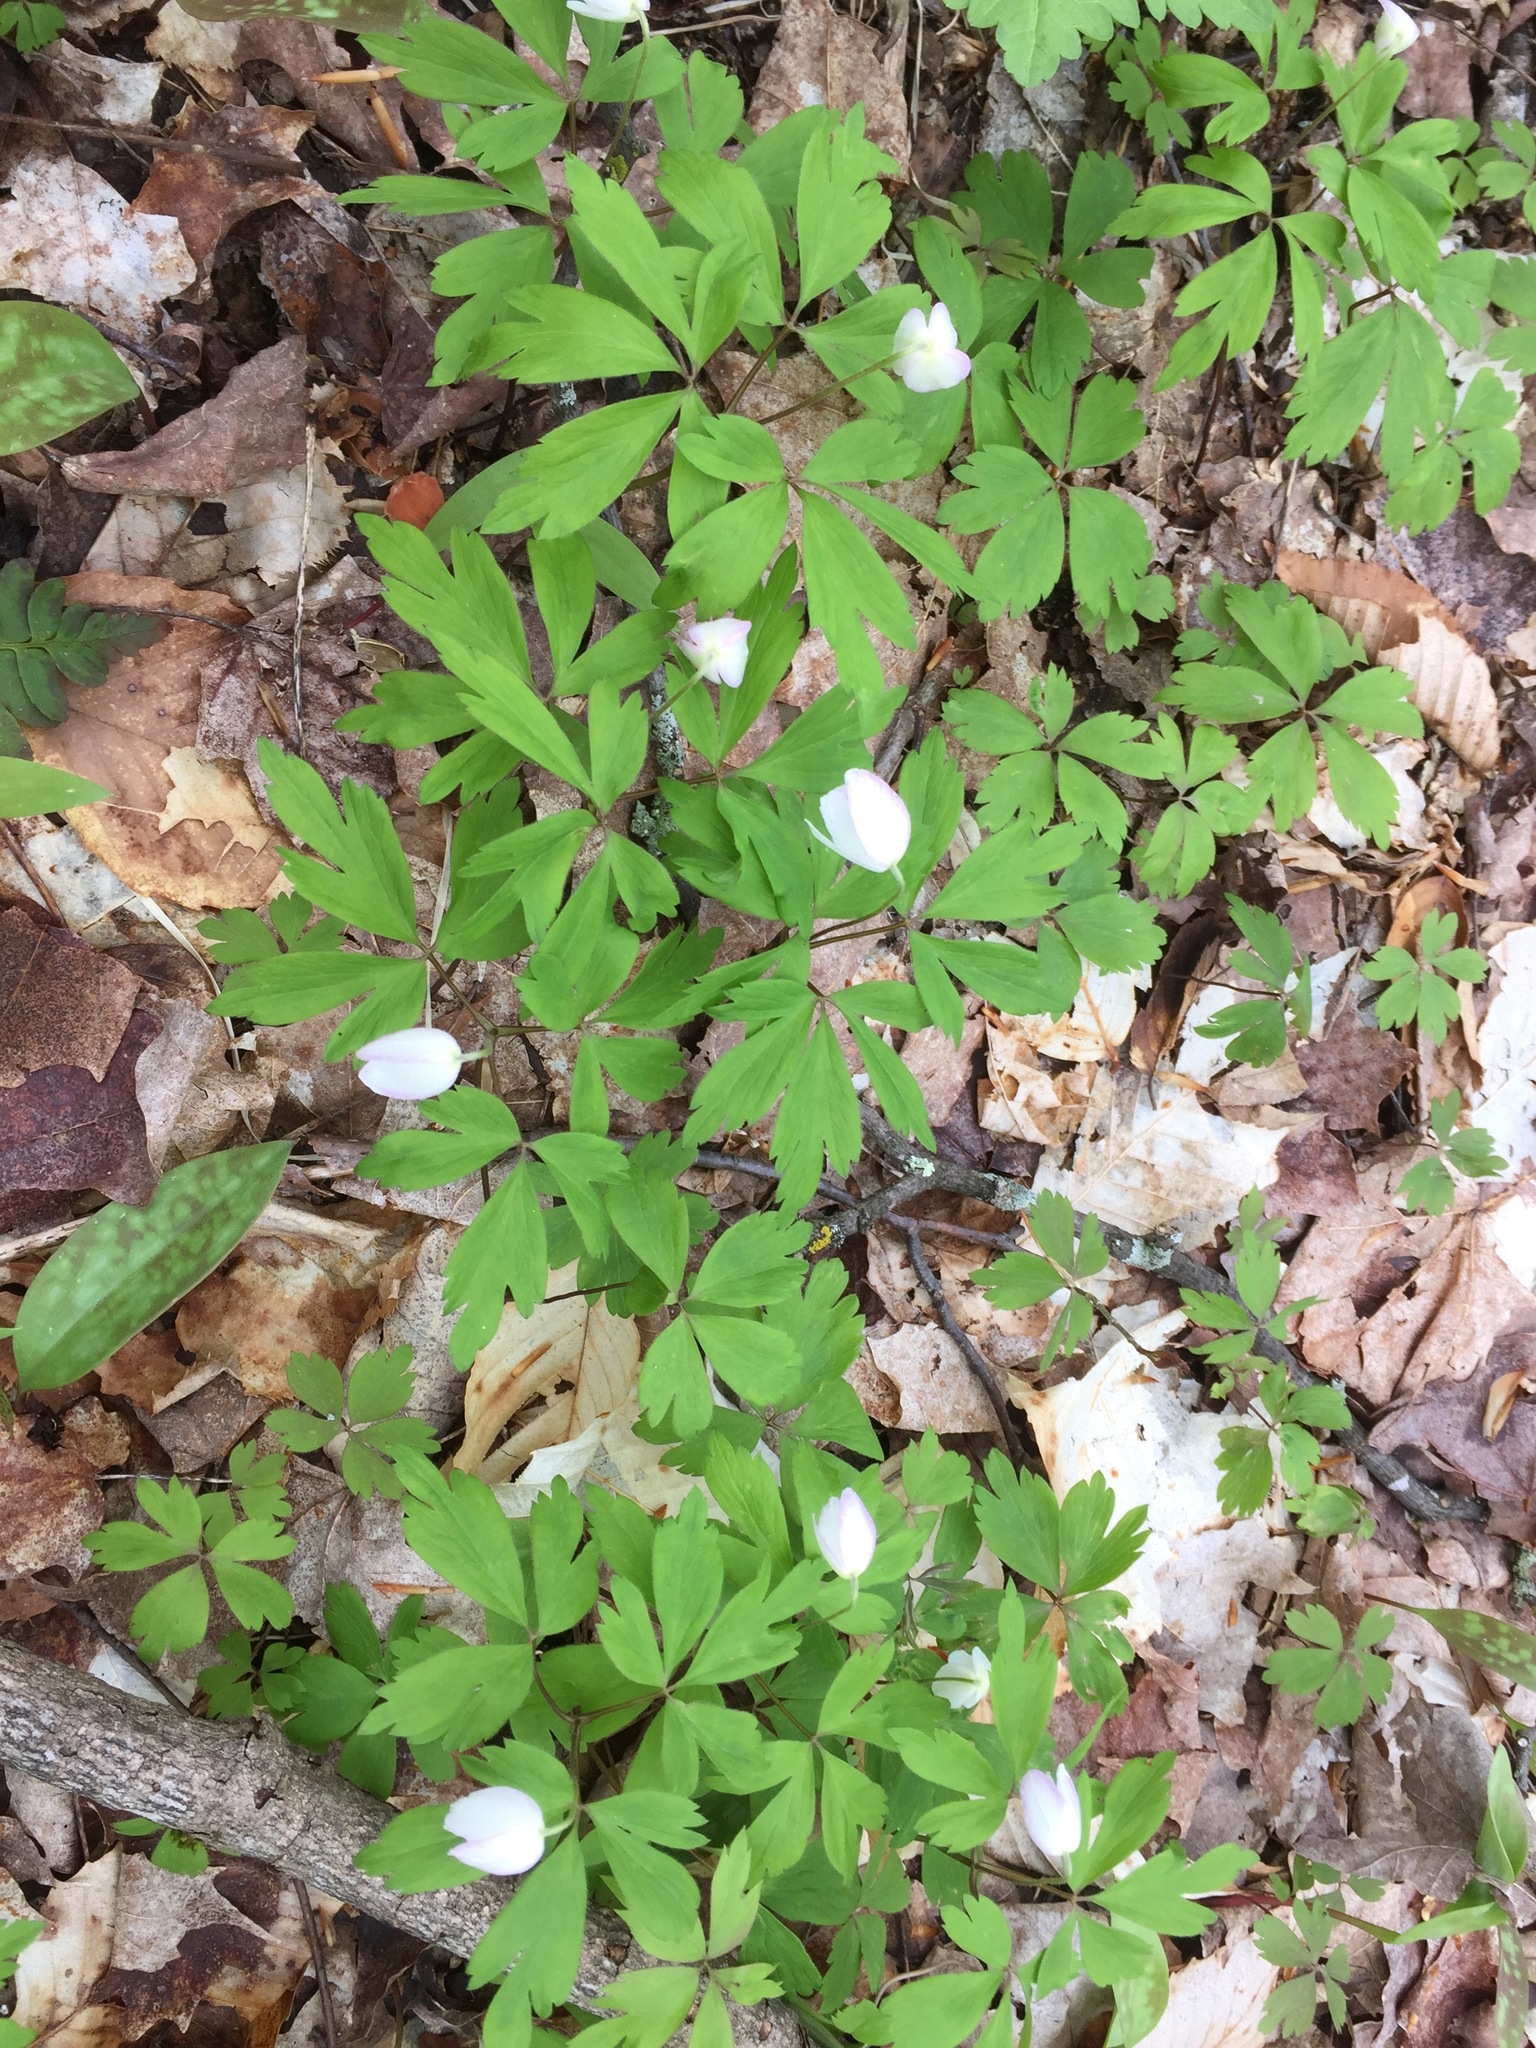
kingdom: Plantae
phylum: Tracheophyta
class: Magnoliopsida
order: Ranunculales
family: Ranunculaceae
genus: Anemone
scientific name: Anemone quinquefolia
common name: Wood anemone
